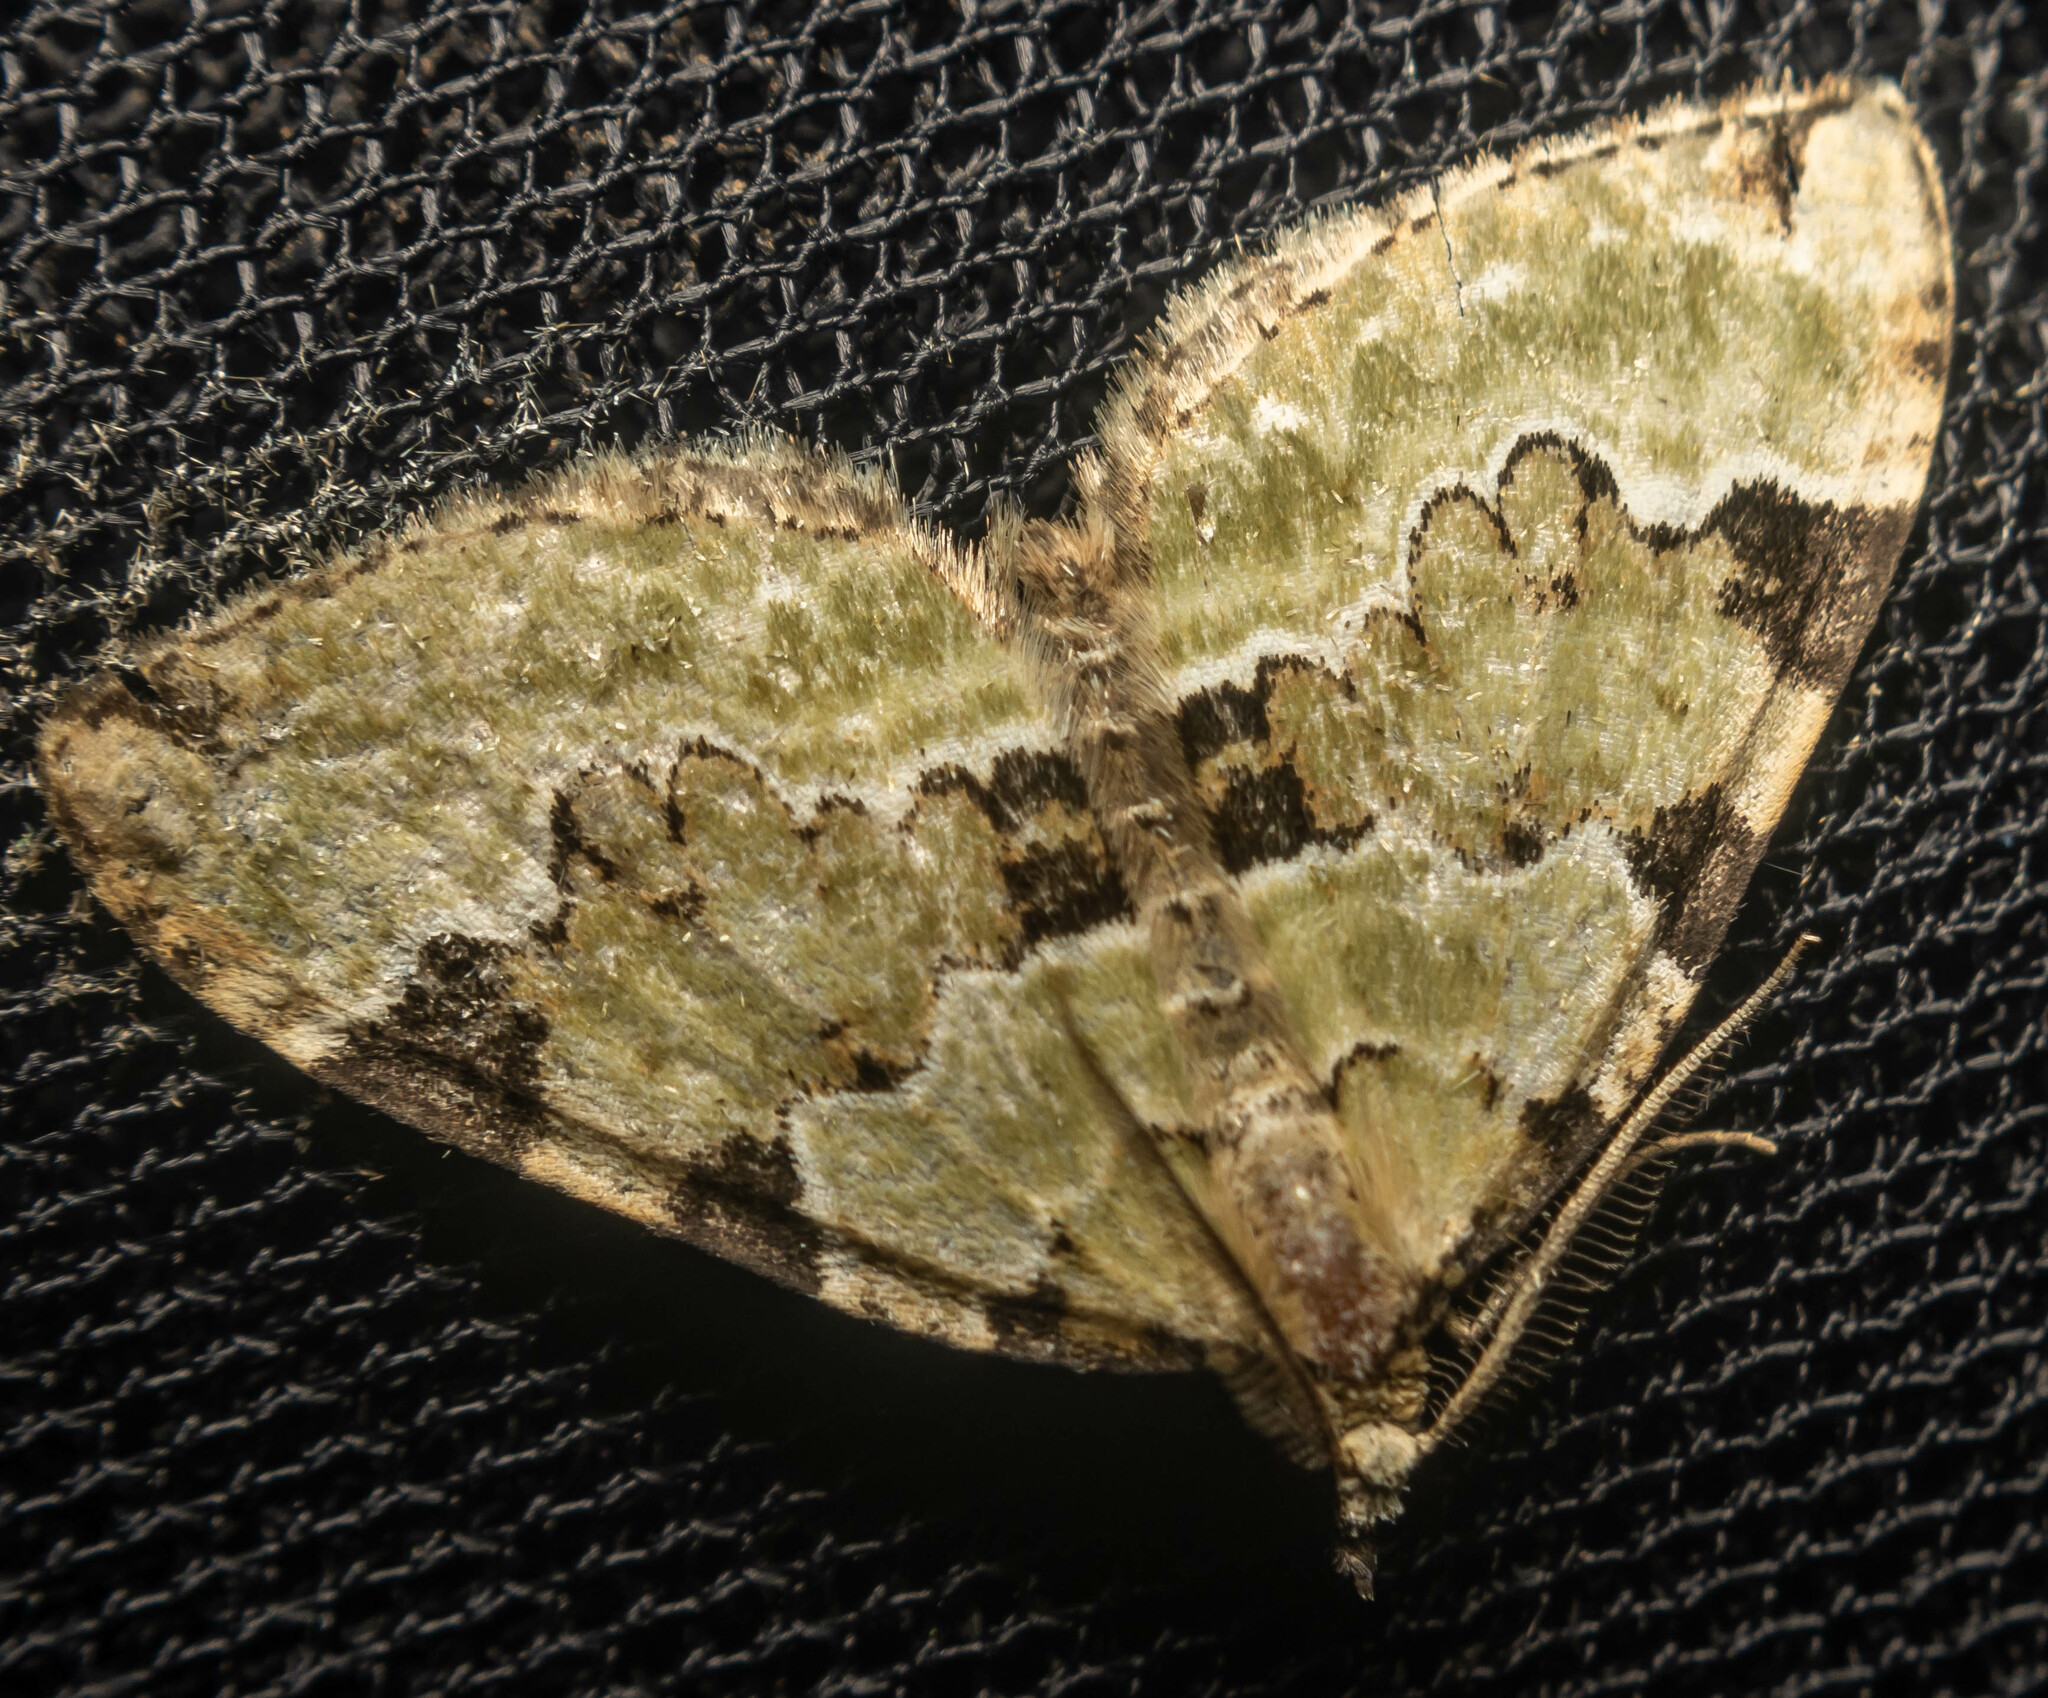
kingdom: Animalia
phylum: Arthropoda
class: Insecta
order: Lepidoptera
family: Geometridae
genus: Colostygia
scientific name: Colostygia pectinataria
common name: Green carpet
